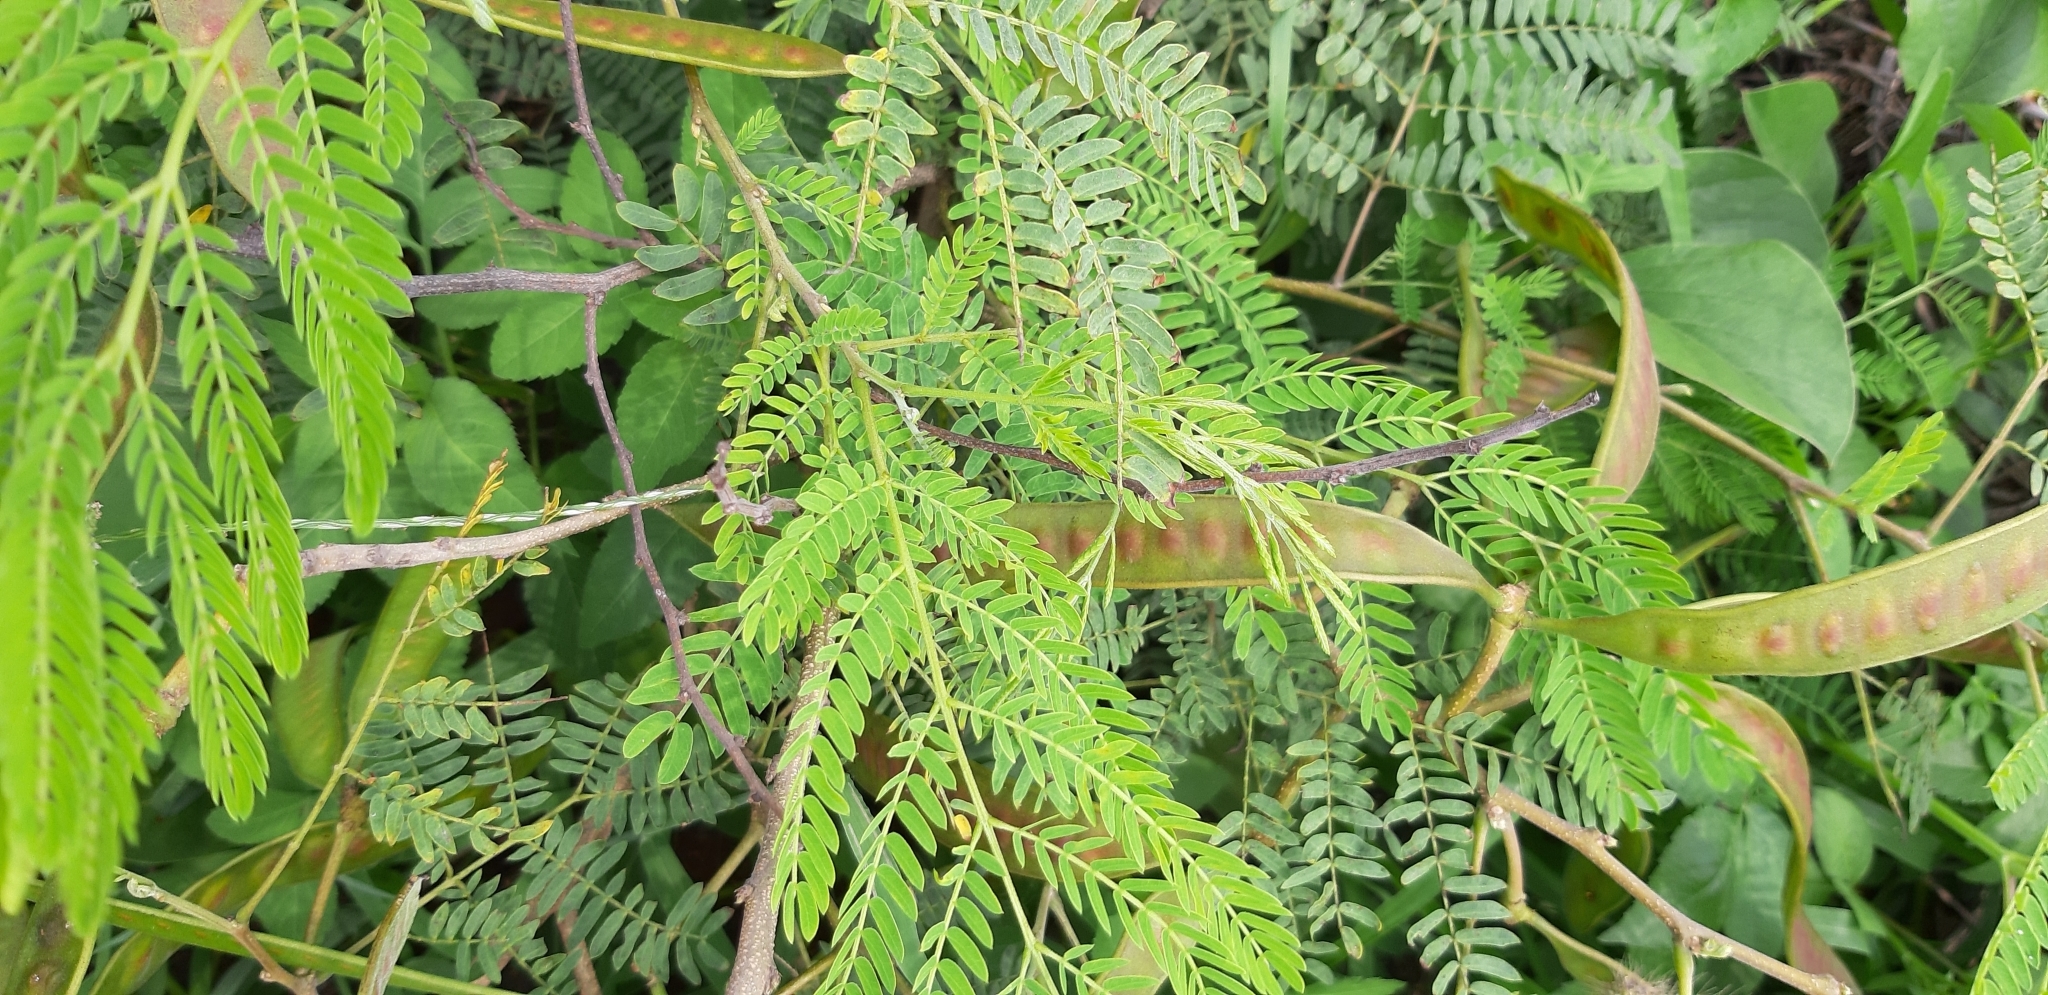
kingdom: Plantae
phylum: Tracheophyta
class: Magnoliopsida
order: Fabales
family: Fabaceae
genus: Leucaena
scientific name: Leucaena leucocephala
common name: White leadtree
